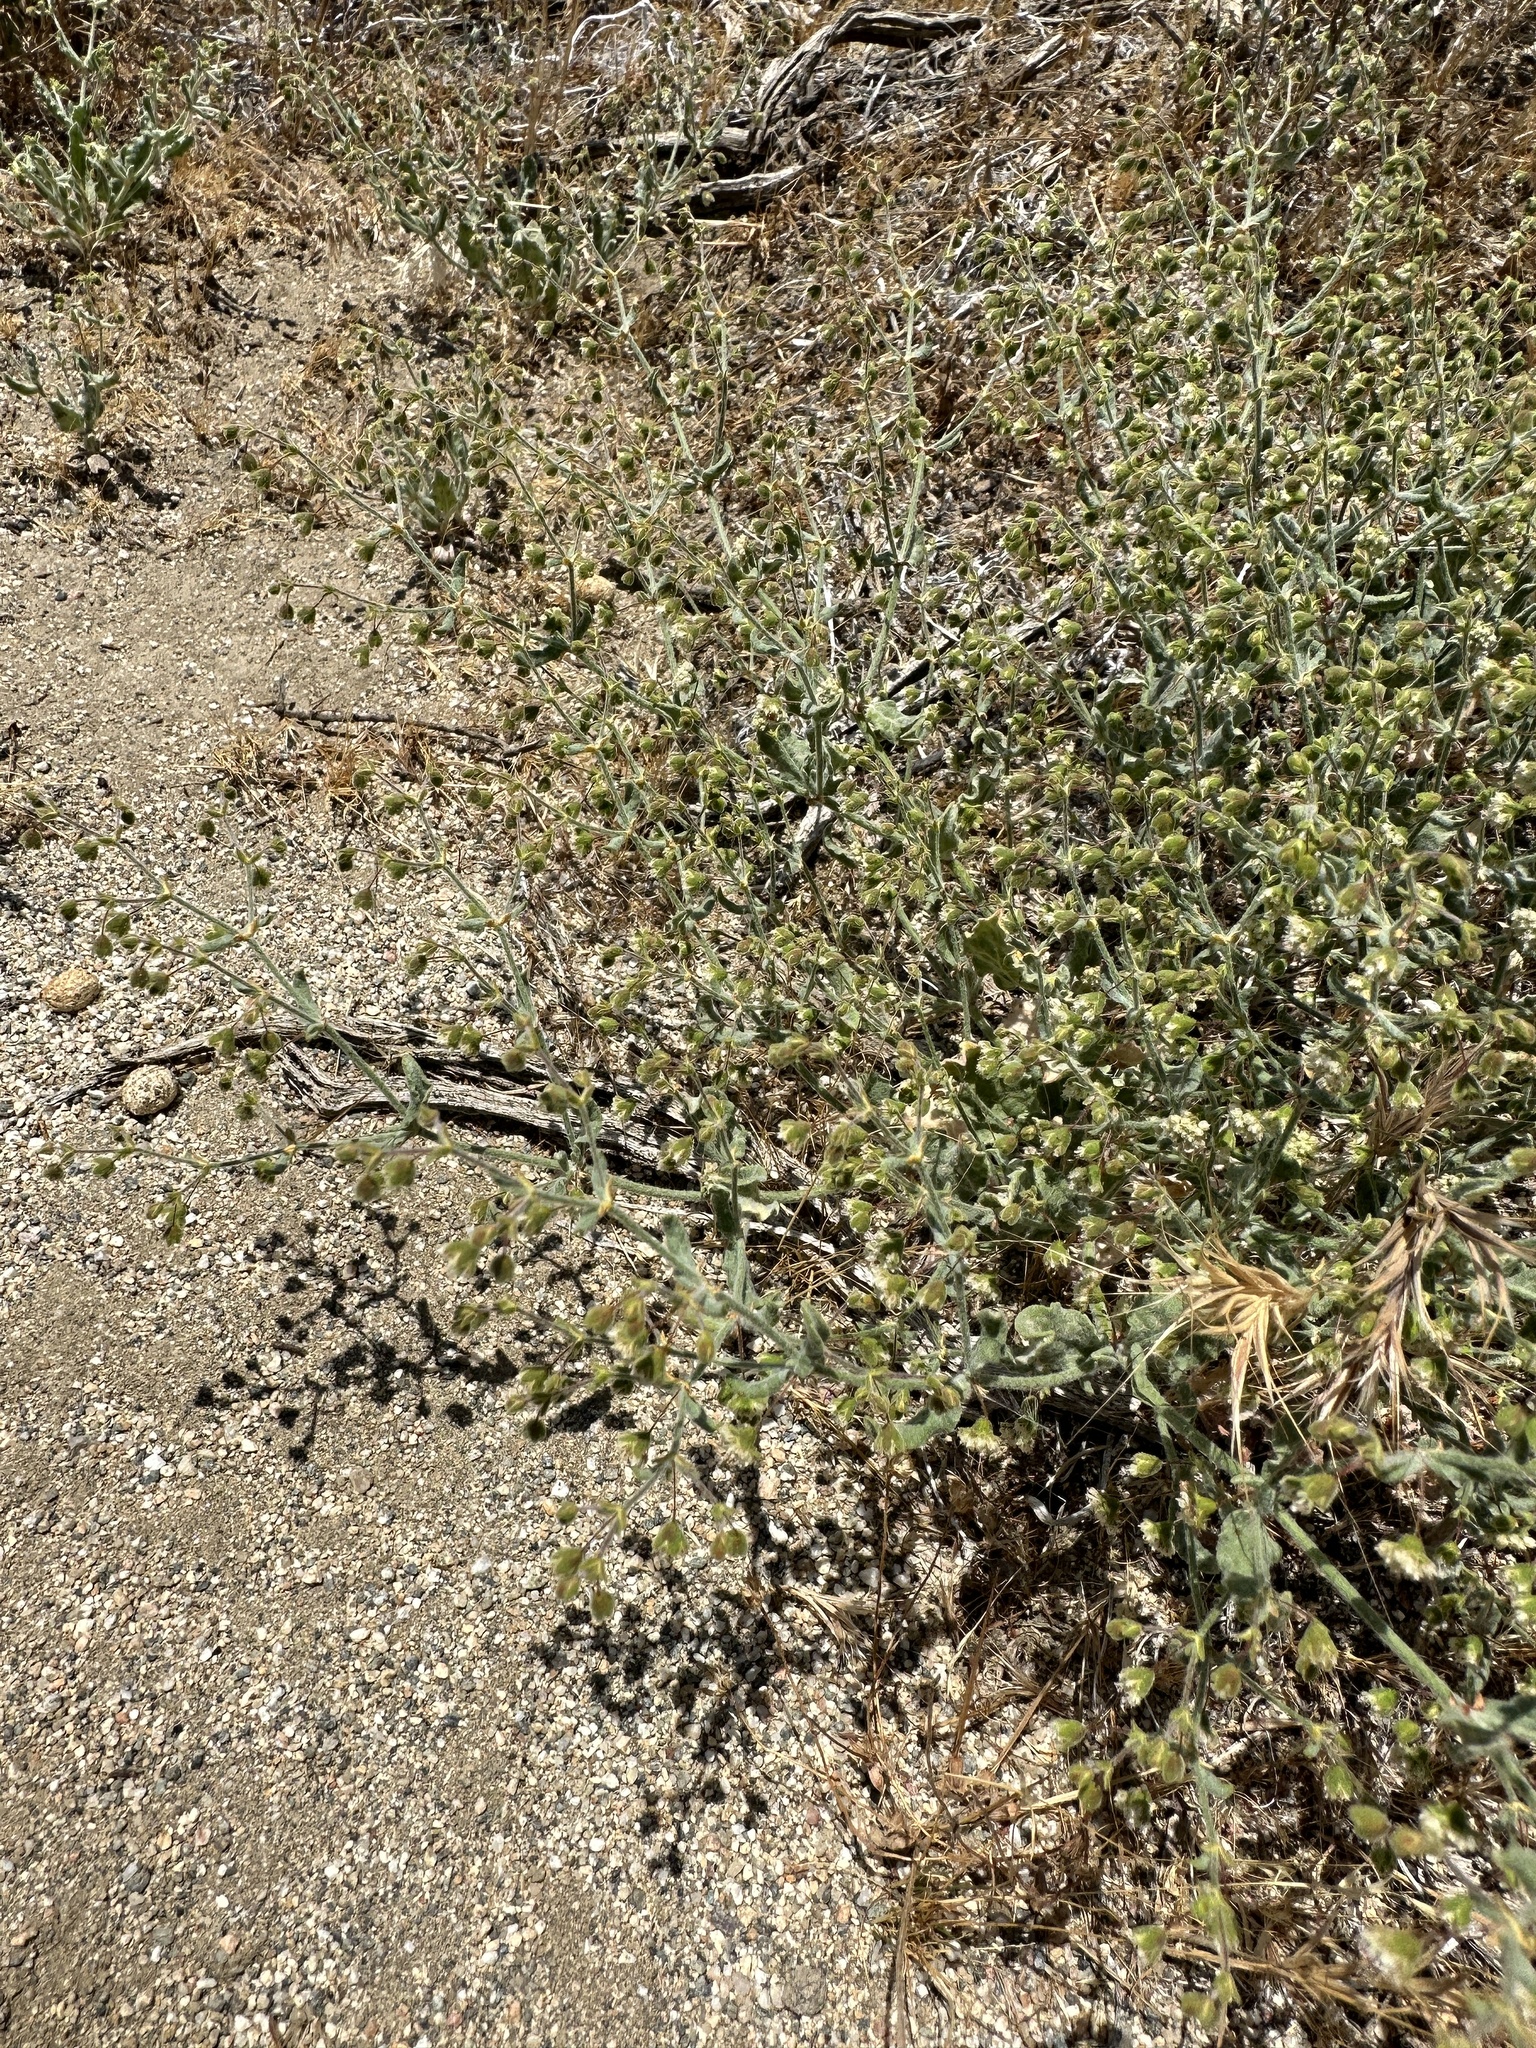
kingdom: Plantae
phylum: Tracheophyta
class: Magnoliopsida
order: Caryophyllales
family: Polygonaceae
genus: Eriogonum
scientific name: Eriogonum viridescens
